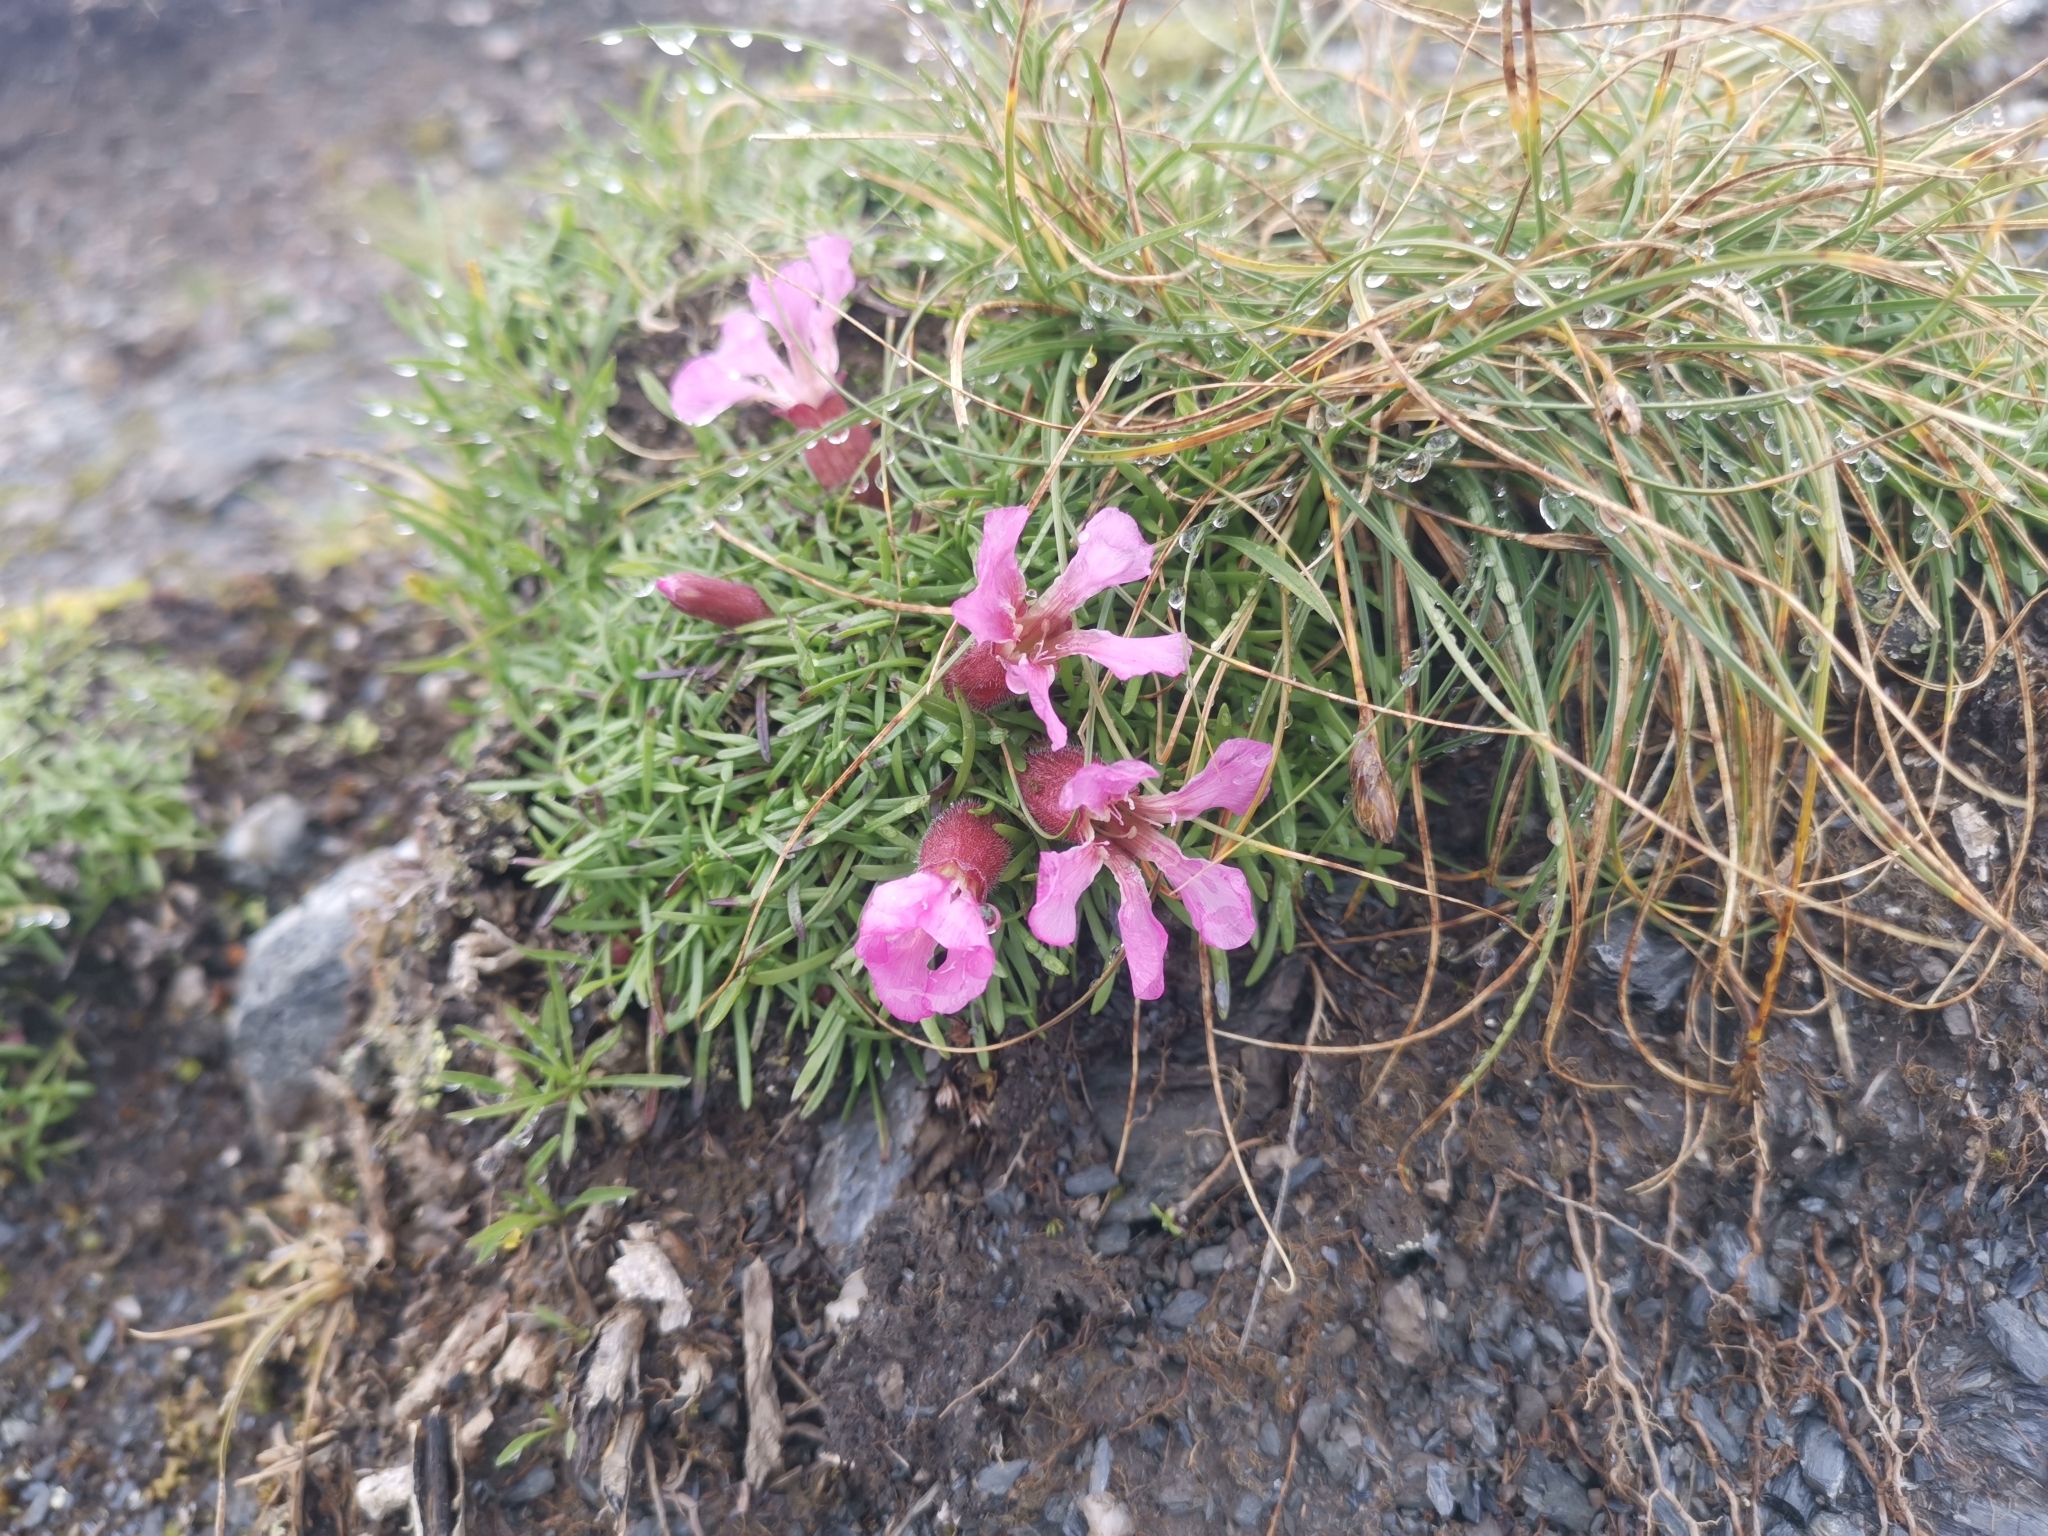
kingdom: Plantae
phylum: Tracheophyta
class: Magnoliopsida
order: Caryophyllales
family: Caryophyllaceae
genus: Saponaria
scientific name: Saponaria pumila
